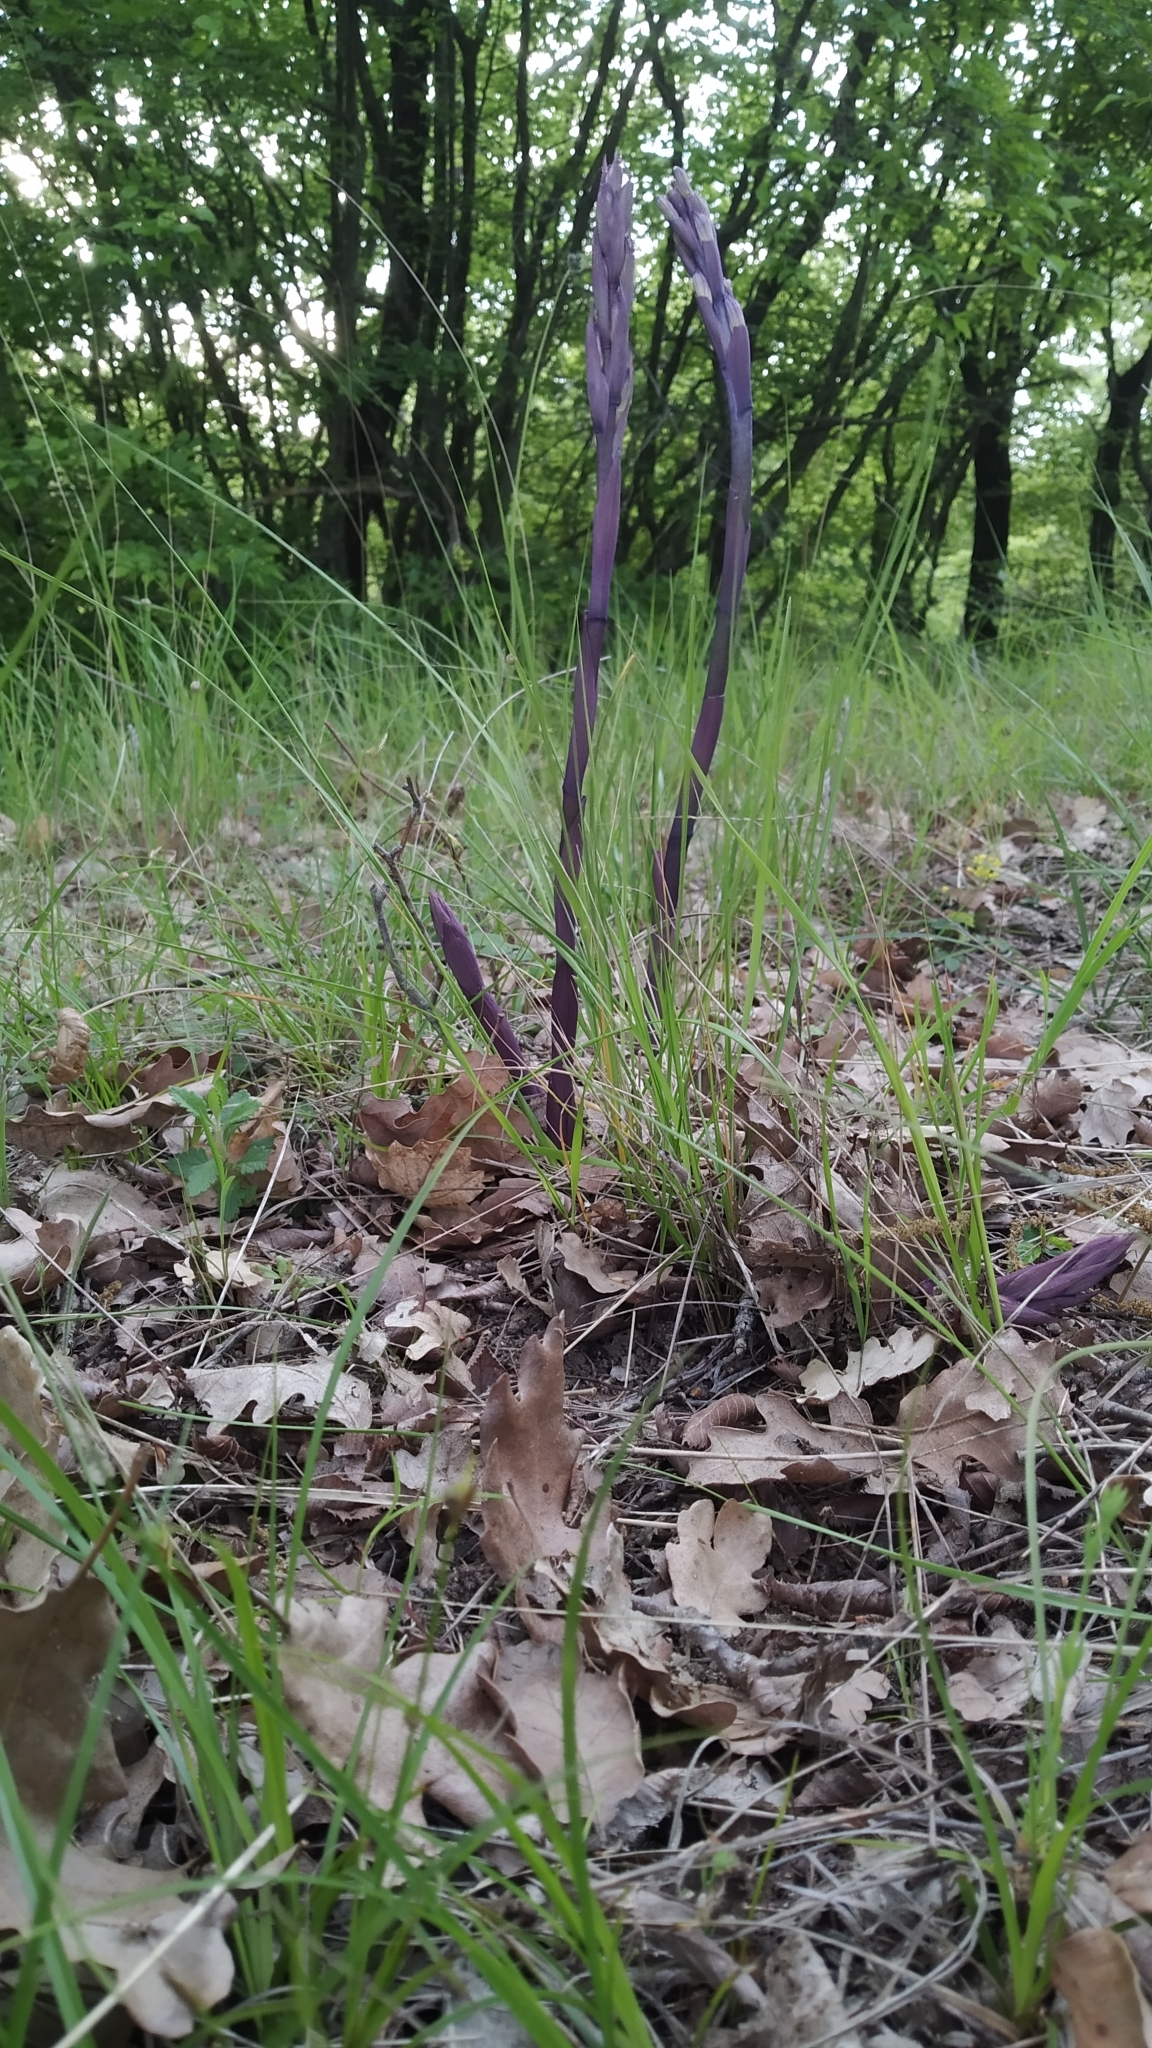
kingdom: Plantae
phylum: Tracheophyta
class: Liliopsida
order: Asparagales
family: Orchidaceae
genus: Limodorum
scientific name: Limodorum abortivum
